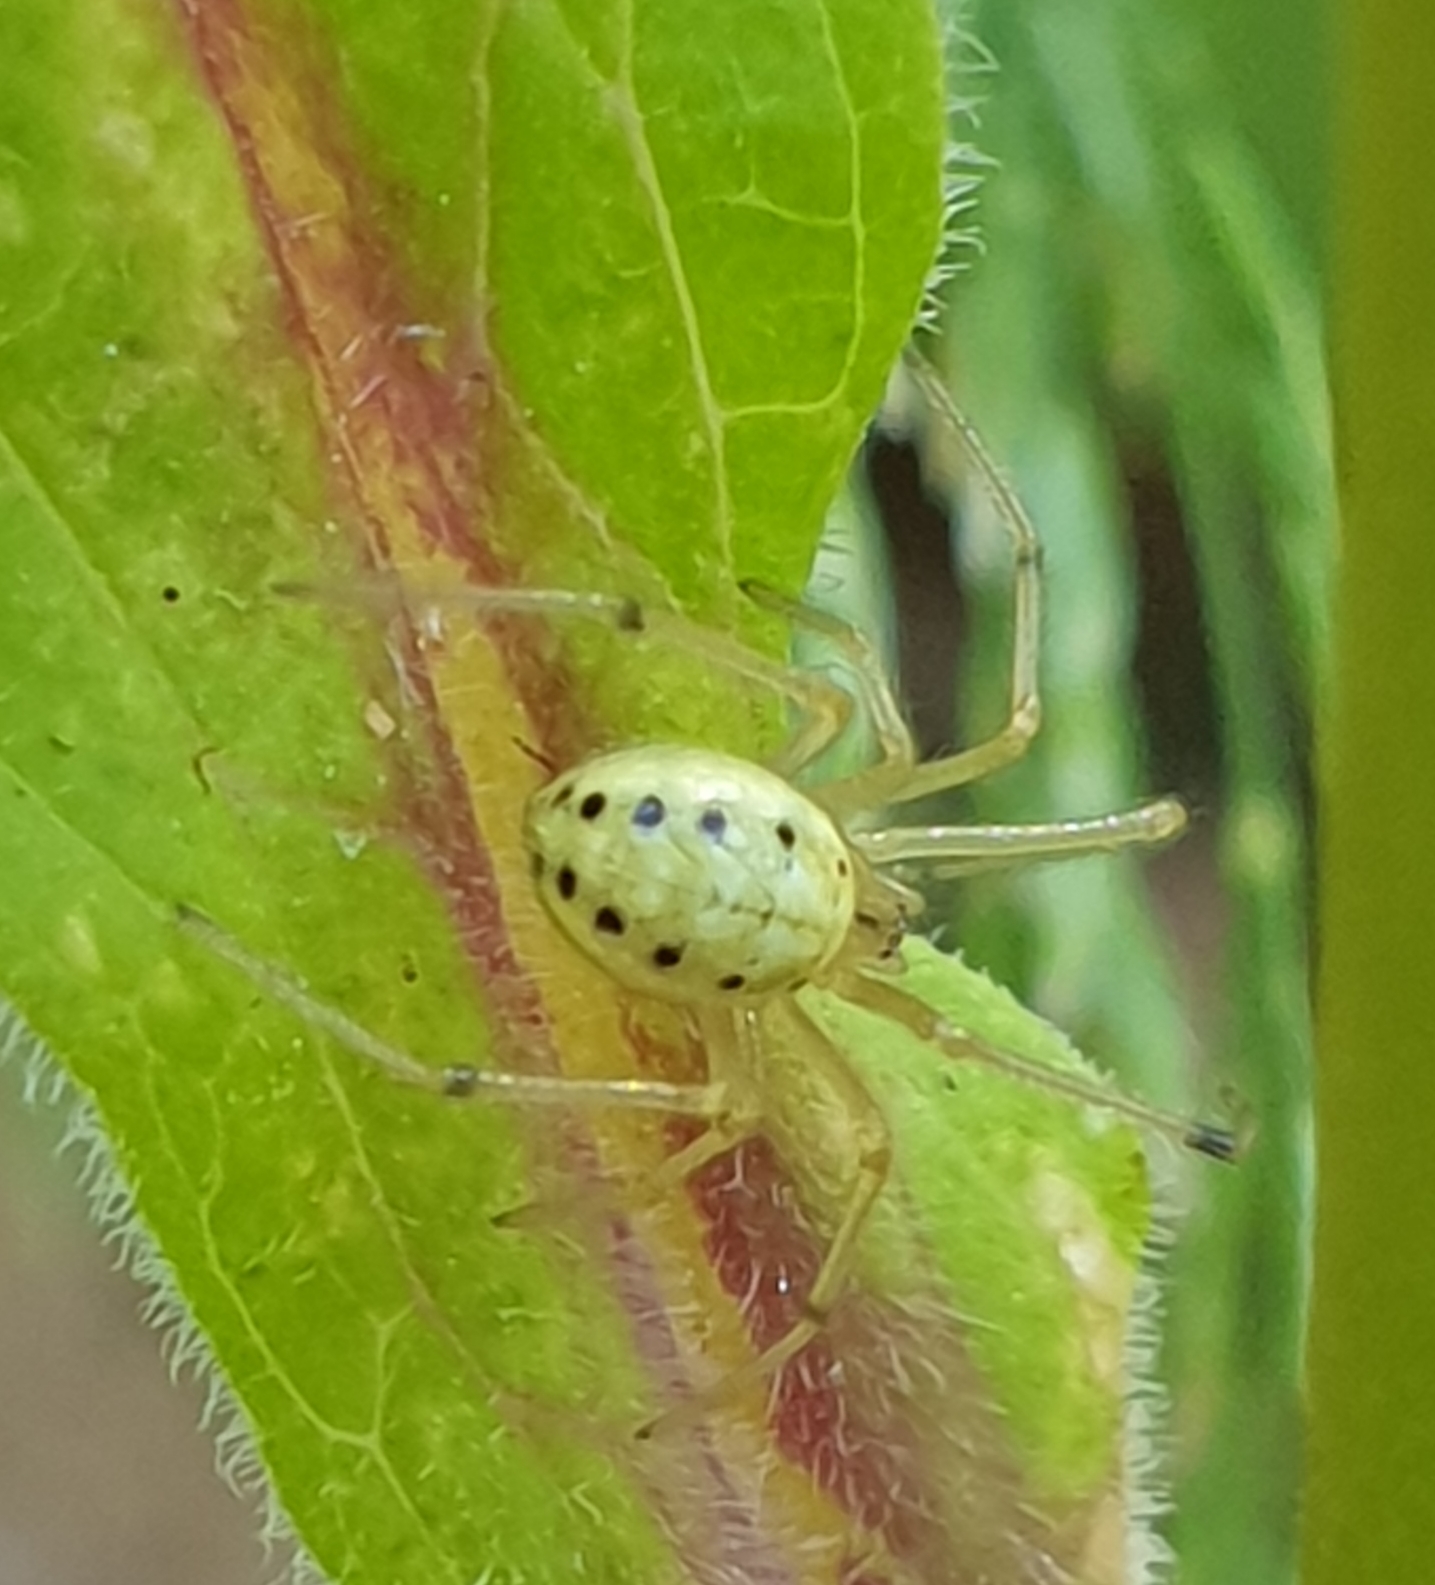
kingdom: Animalia
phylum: Arthropoda
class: Arachnida
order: Araneae
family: Theridiidae
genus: Enoplognatha
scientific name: Enoplognatha ovata
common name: Common candy-striped spider
